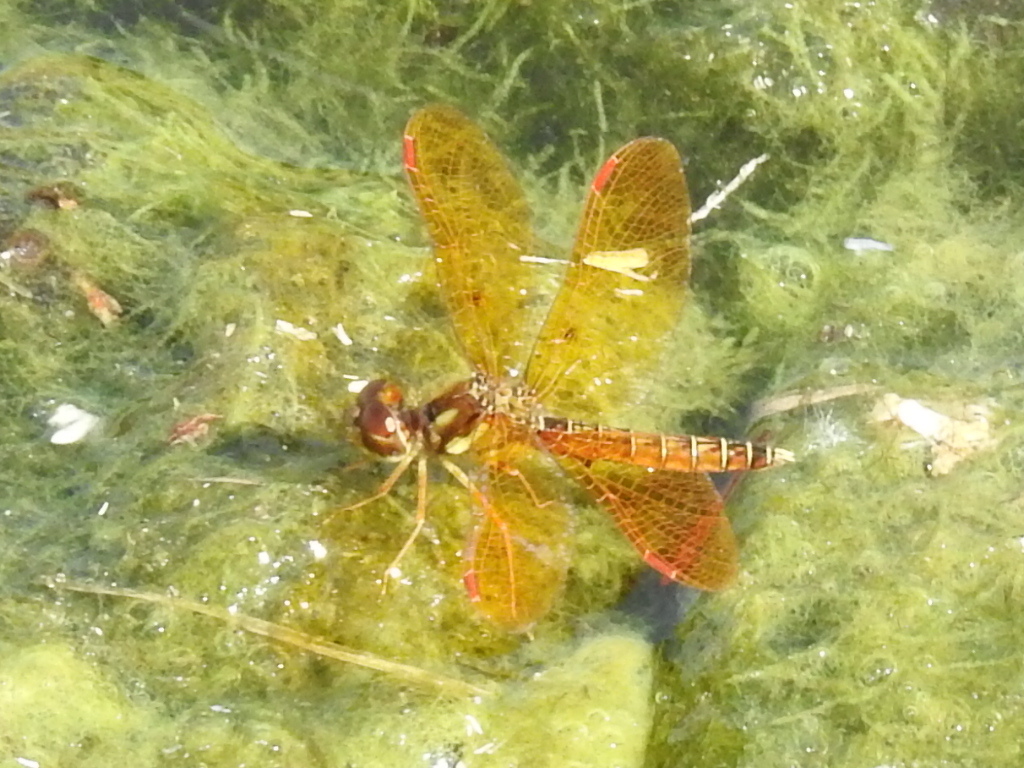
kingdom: Animalia
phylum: Arthropoda
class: Insecta
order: Odonata
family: Libellulidae
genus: Perithemis
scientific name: Perithemis tenera
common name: Eastern amberwing
